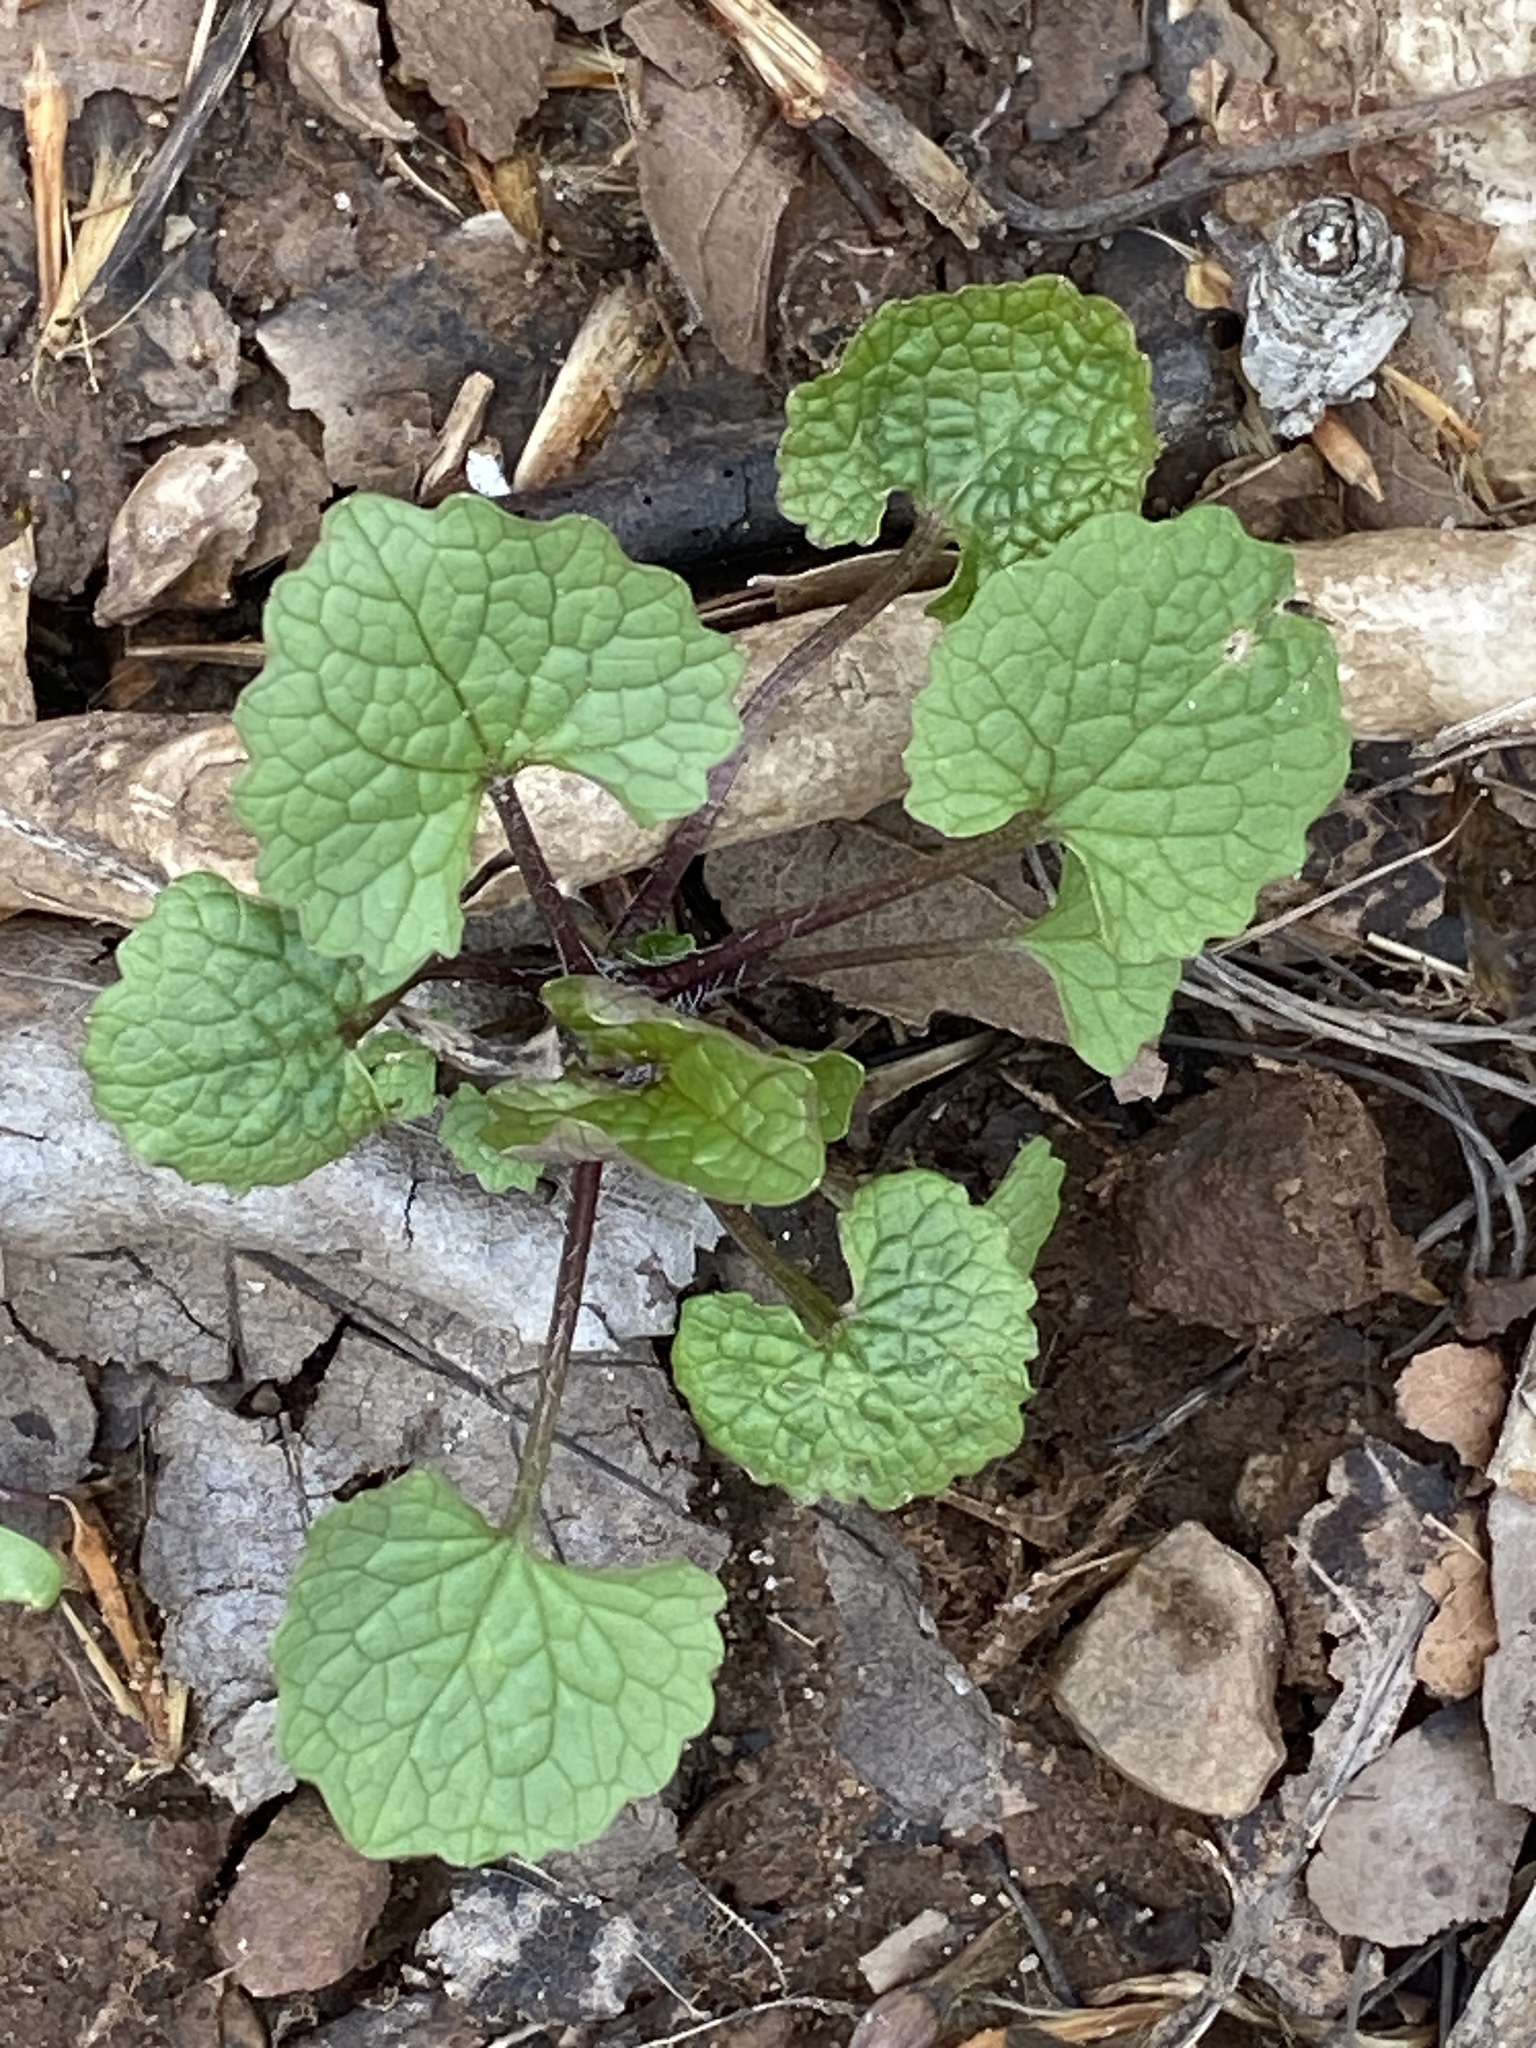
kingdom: Plantae
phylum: Tracheophyta
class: Magnoliopsida
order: Brassicales
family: Brassicaceae
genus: Alliaria
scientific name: Alliaria petiolata
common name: Garlic mustard
